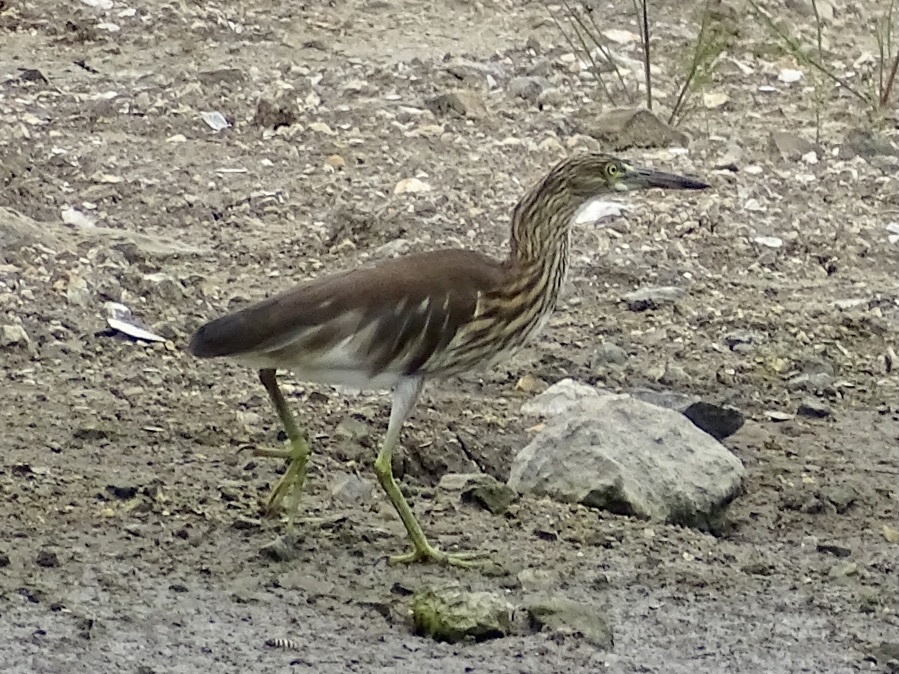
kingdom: Animalia
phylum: Chordata
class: Aves
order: Pelecaniformes
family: Ardeidae
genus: Ardeola
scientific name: Ardeola bacchus
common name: Chinese pond heron
